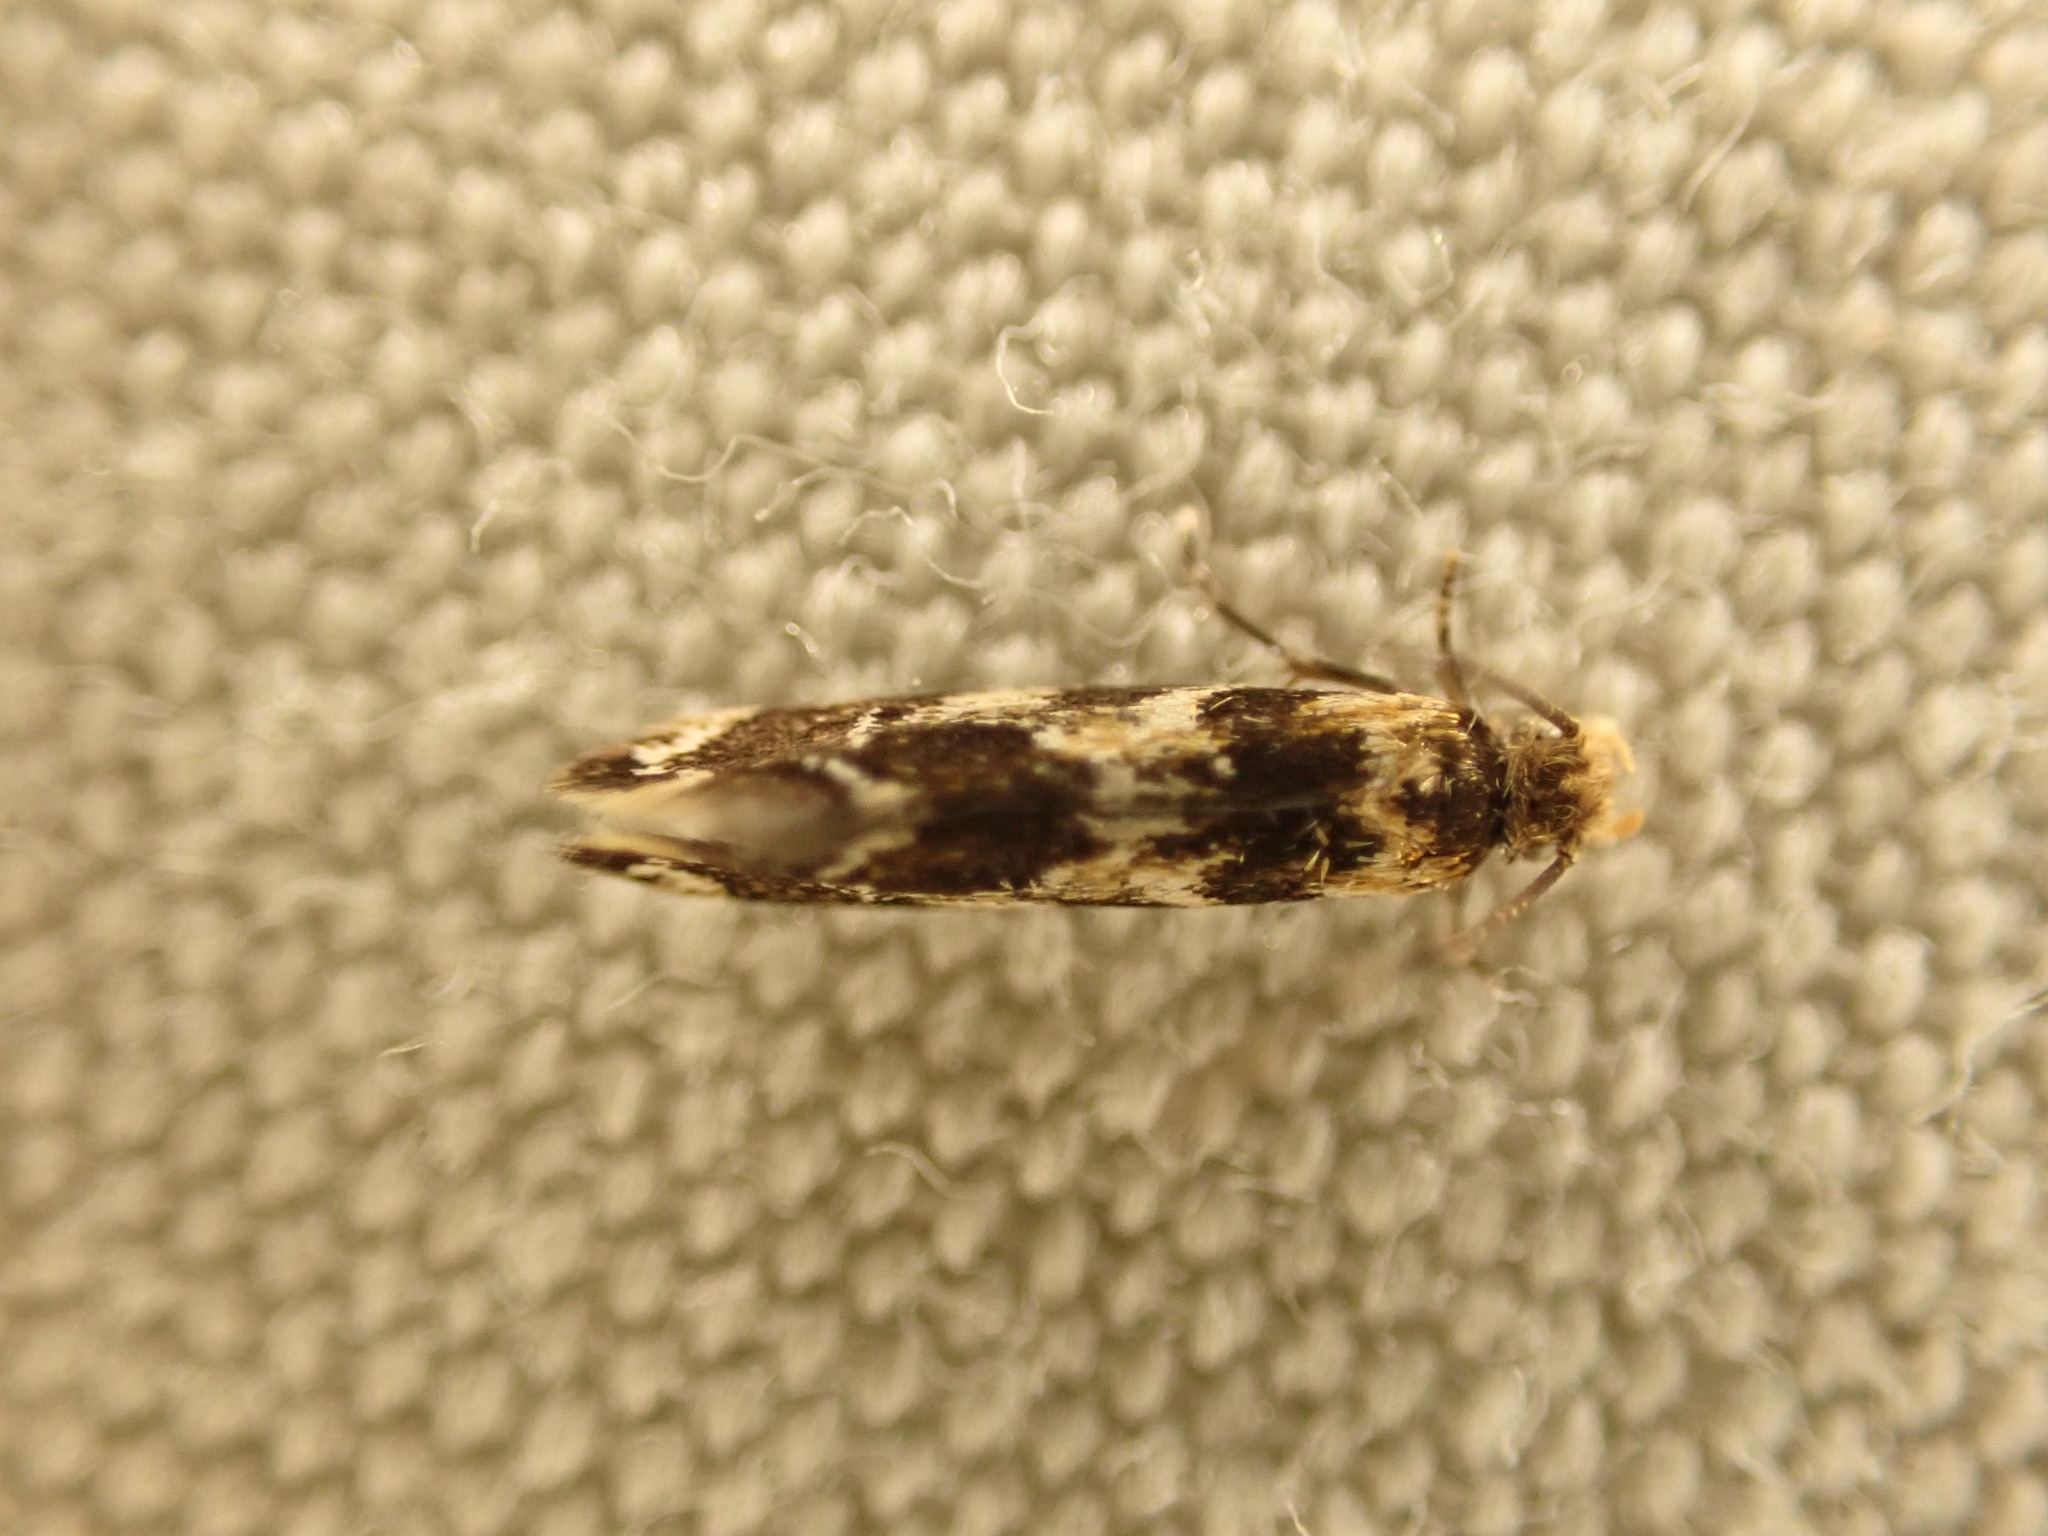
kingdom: Animalia
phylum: Arthropoda
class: Insecta
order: Lepidoptera
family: Dryadaulidae
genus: Dryadaula
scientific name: Dryadaula pactolia
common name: Cellar clothes
